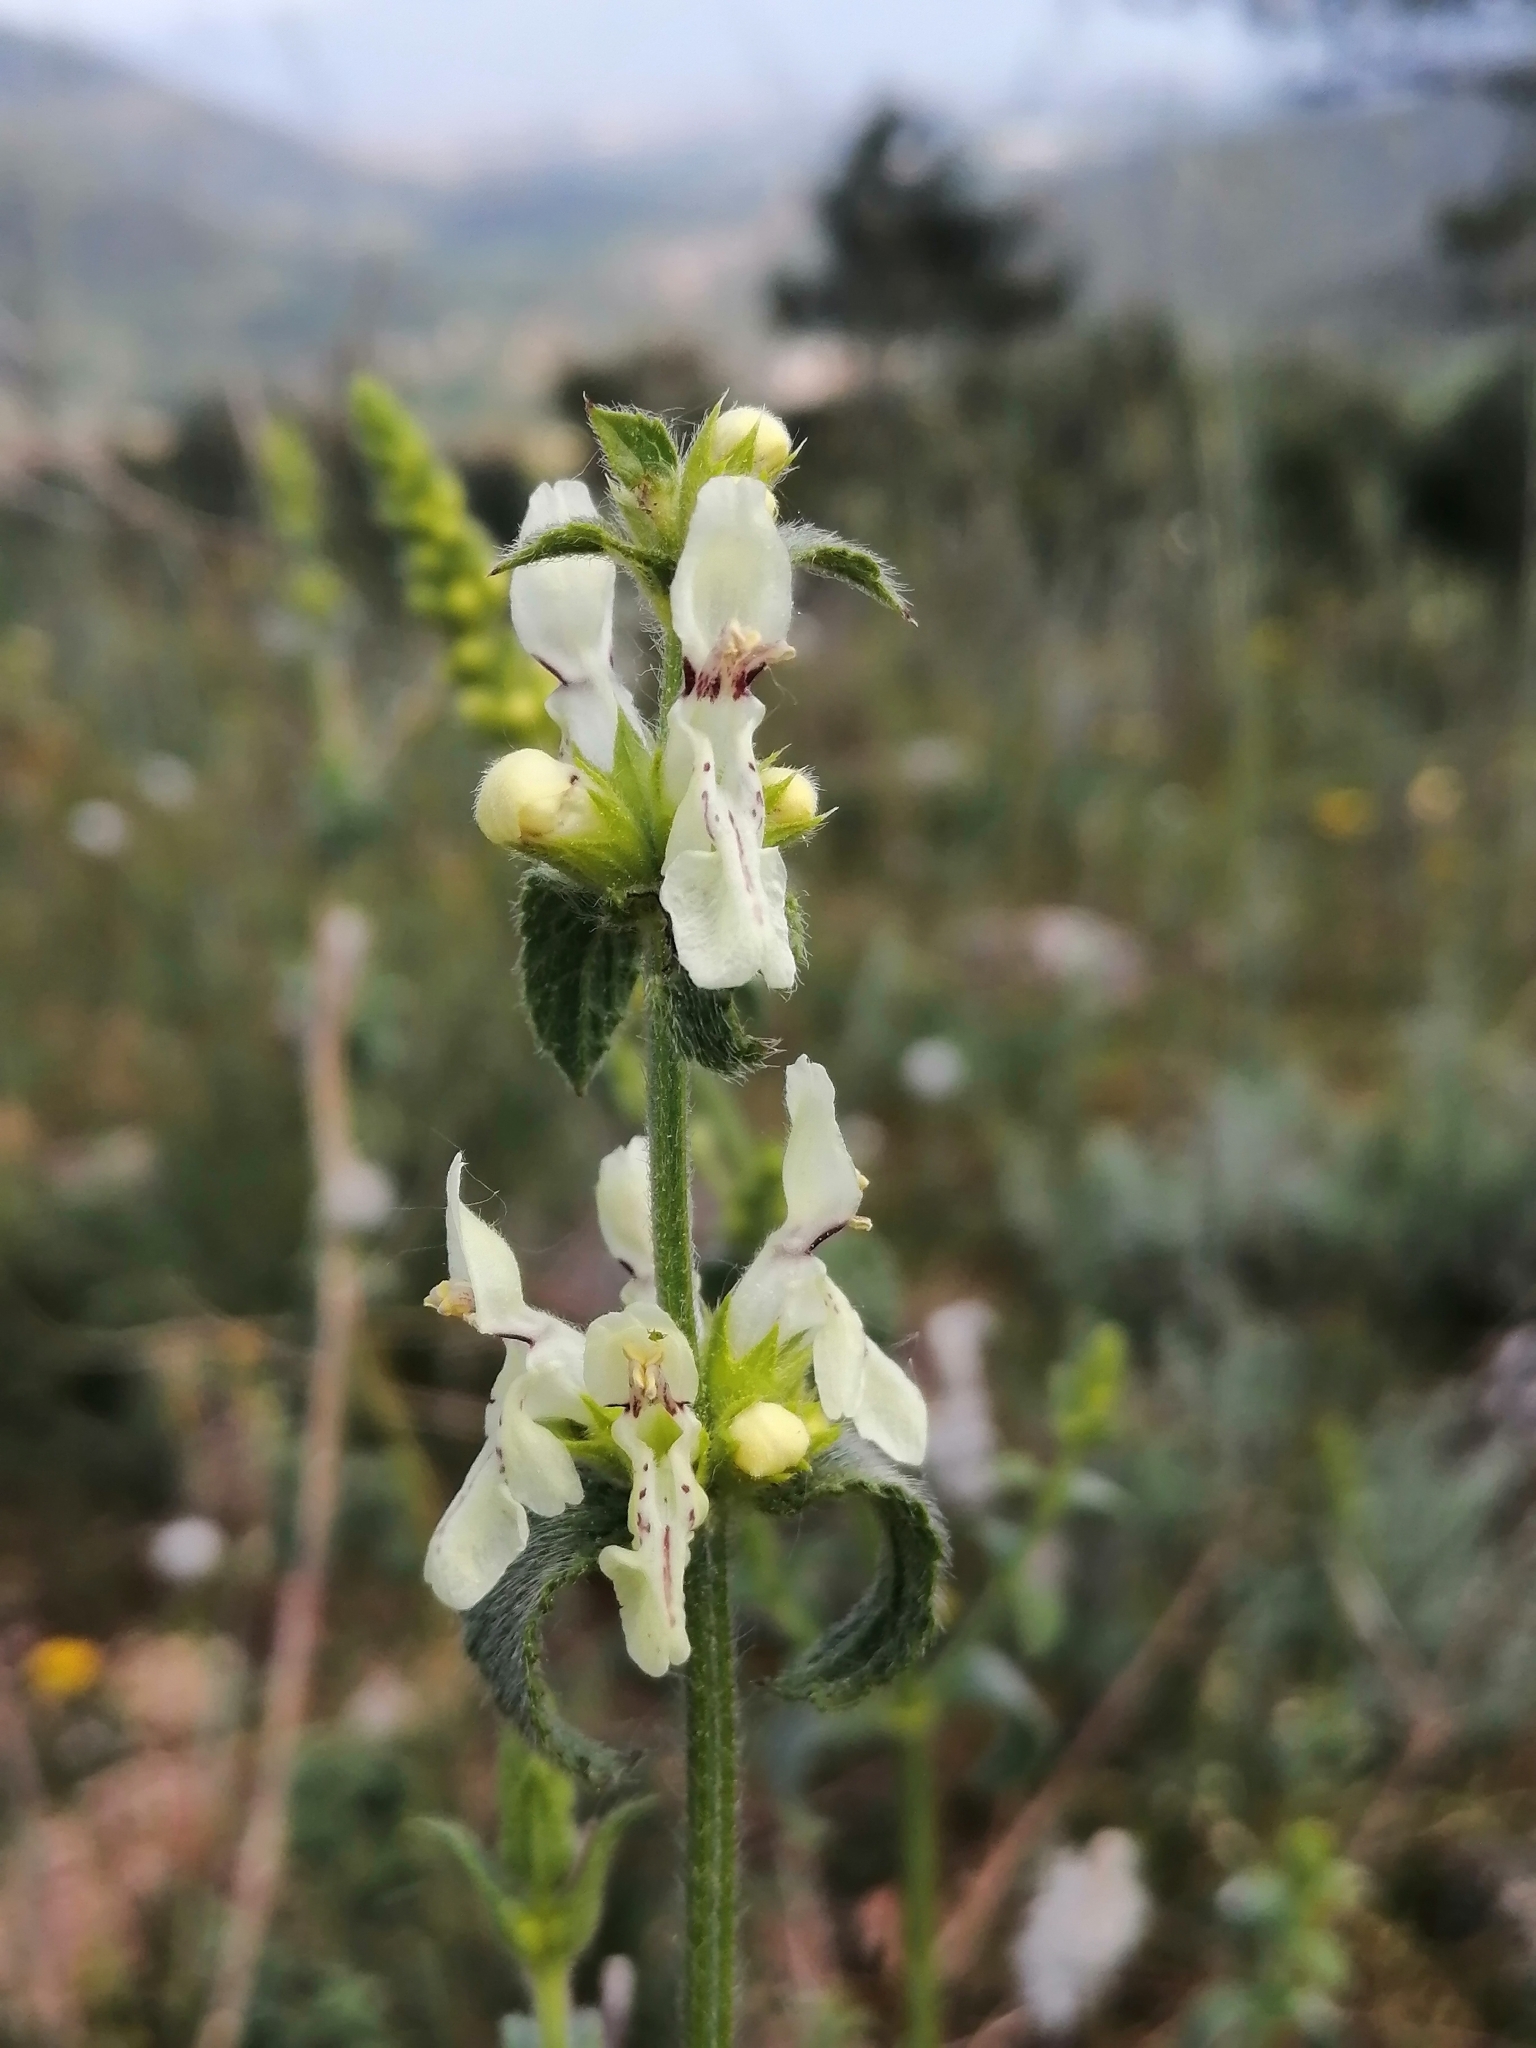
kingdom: Plantae
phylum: Tracheophyta
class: Magnoliopsida
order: Lamiales
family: Lamiaceae
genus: Stachys
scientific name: Stachys recta
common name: Perennial yellow-woundwort
